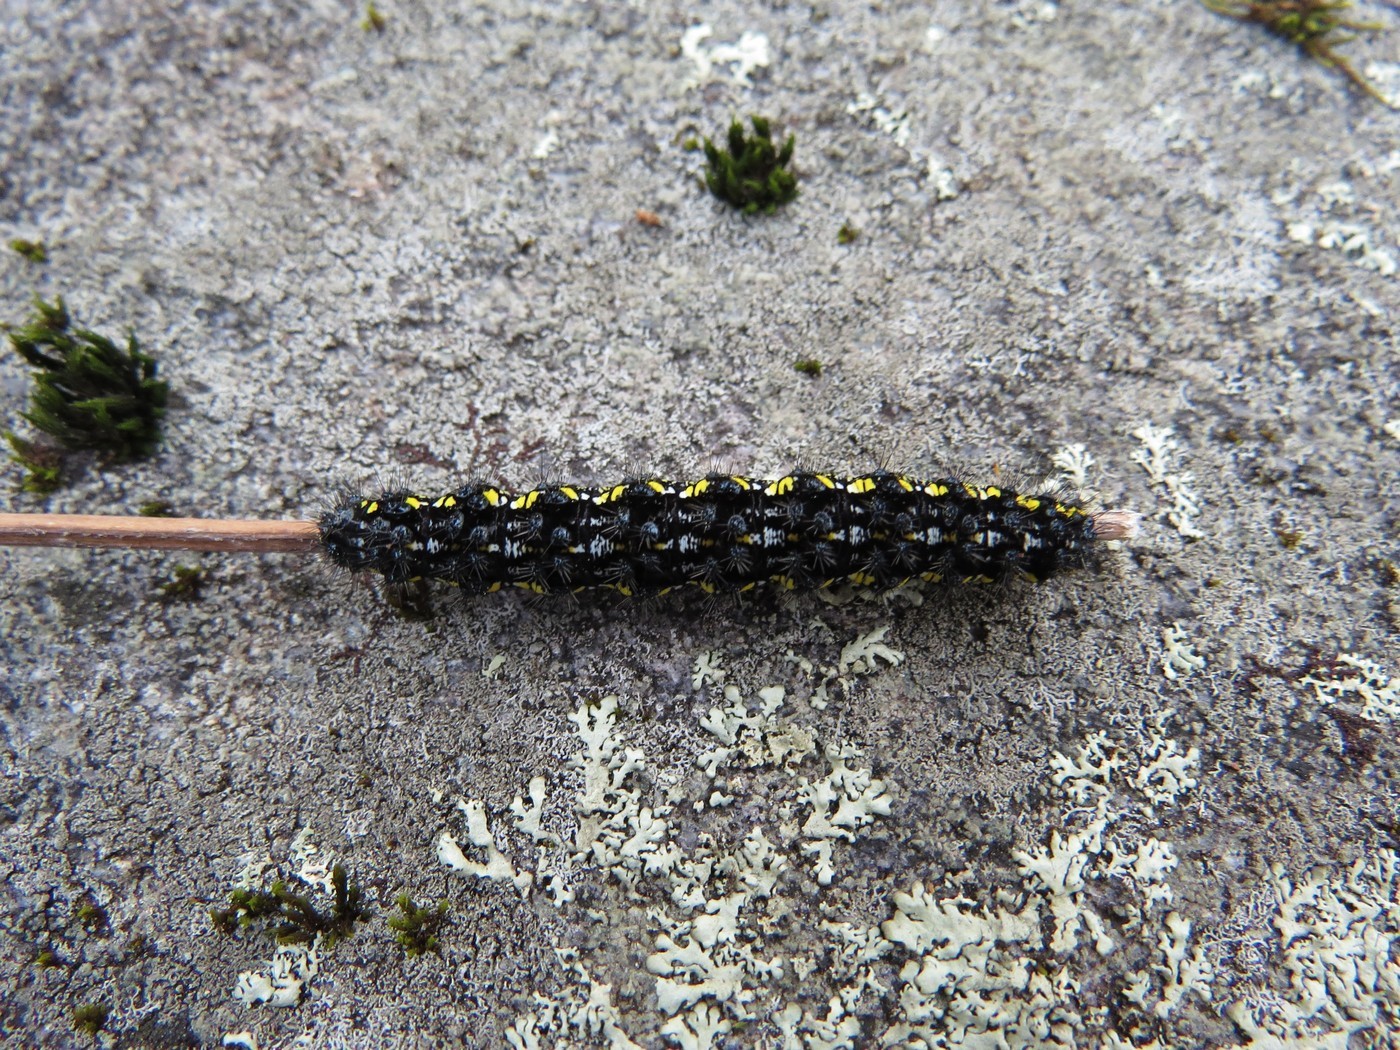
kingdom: Animalia
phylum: Arthropoda
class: Insecta
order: Lepidoptera
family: Erebidae
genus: Haploa
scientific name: Haploa lecontei
